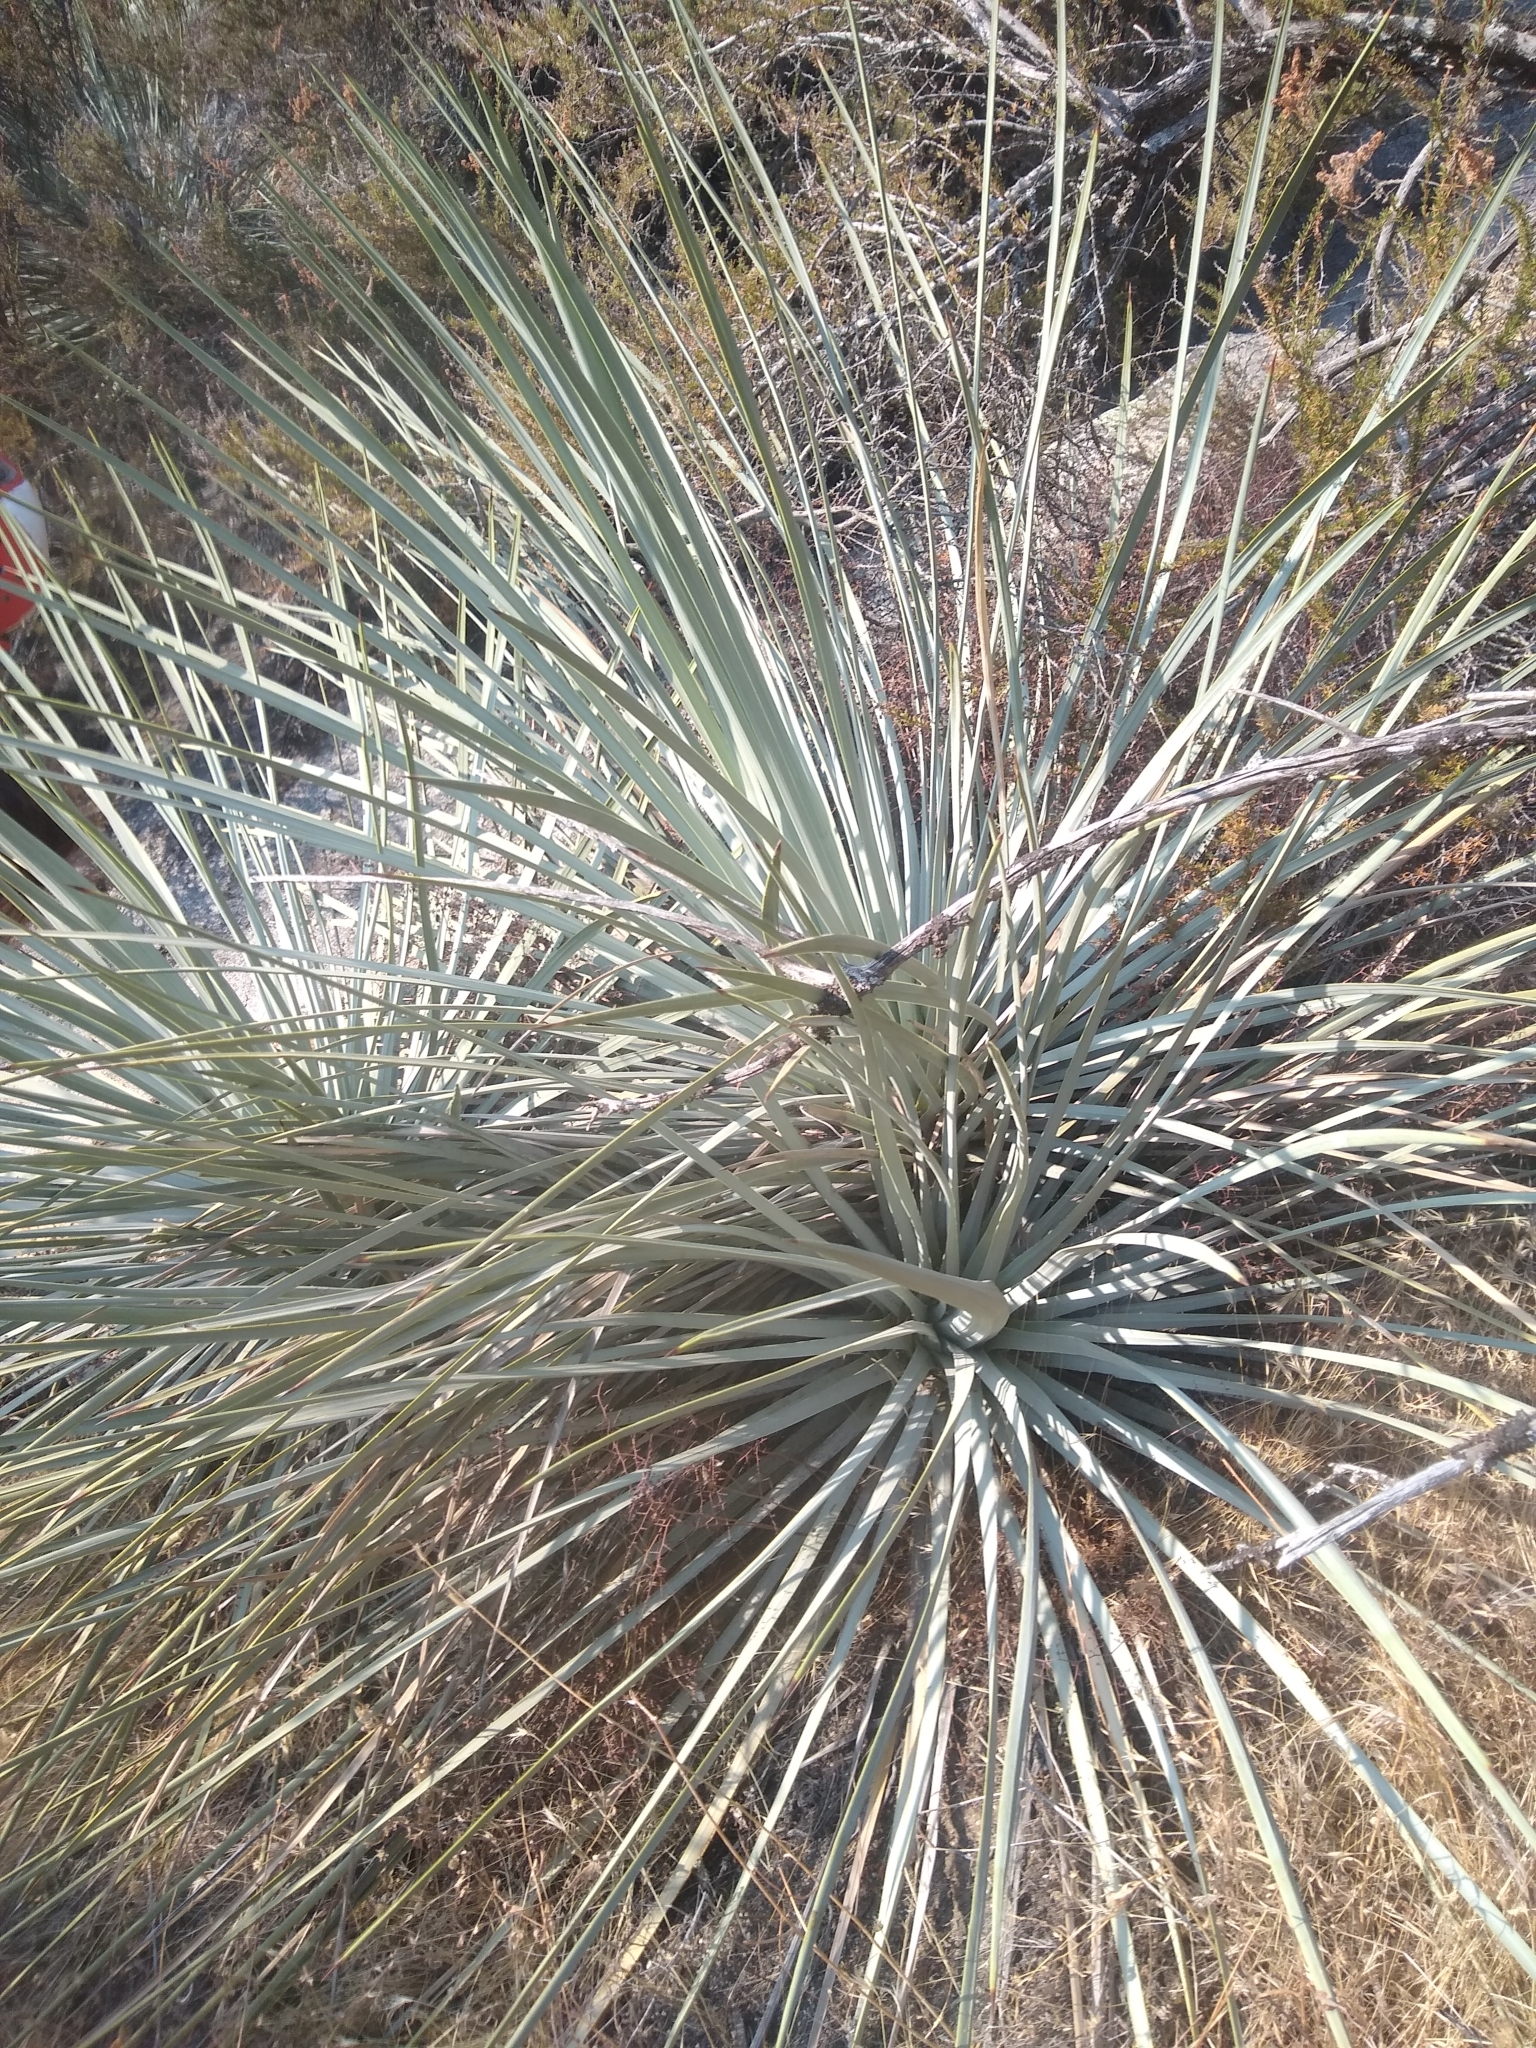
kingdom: Plantae
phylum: Tracheophyta
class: Liliopsida
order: Asparagales
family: Asparagaceae
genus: Hesperoyucca
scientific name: Hesperoyucca whipplei
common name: Our lord's-candle
